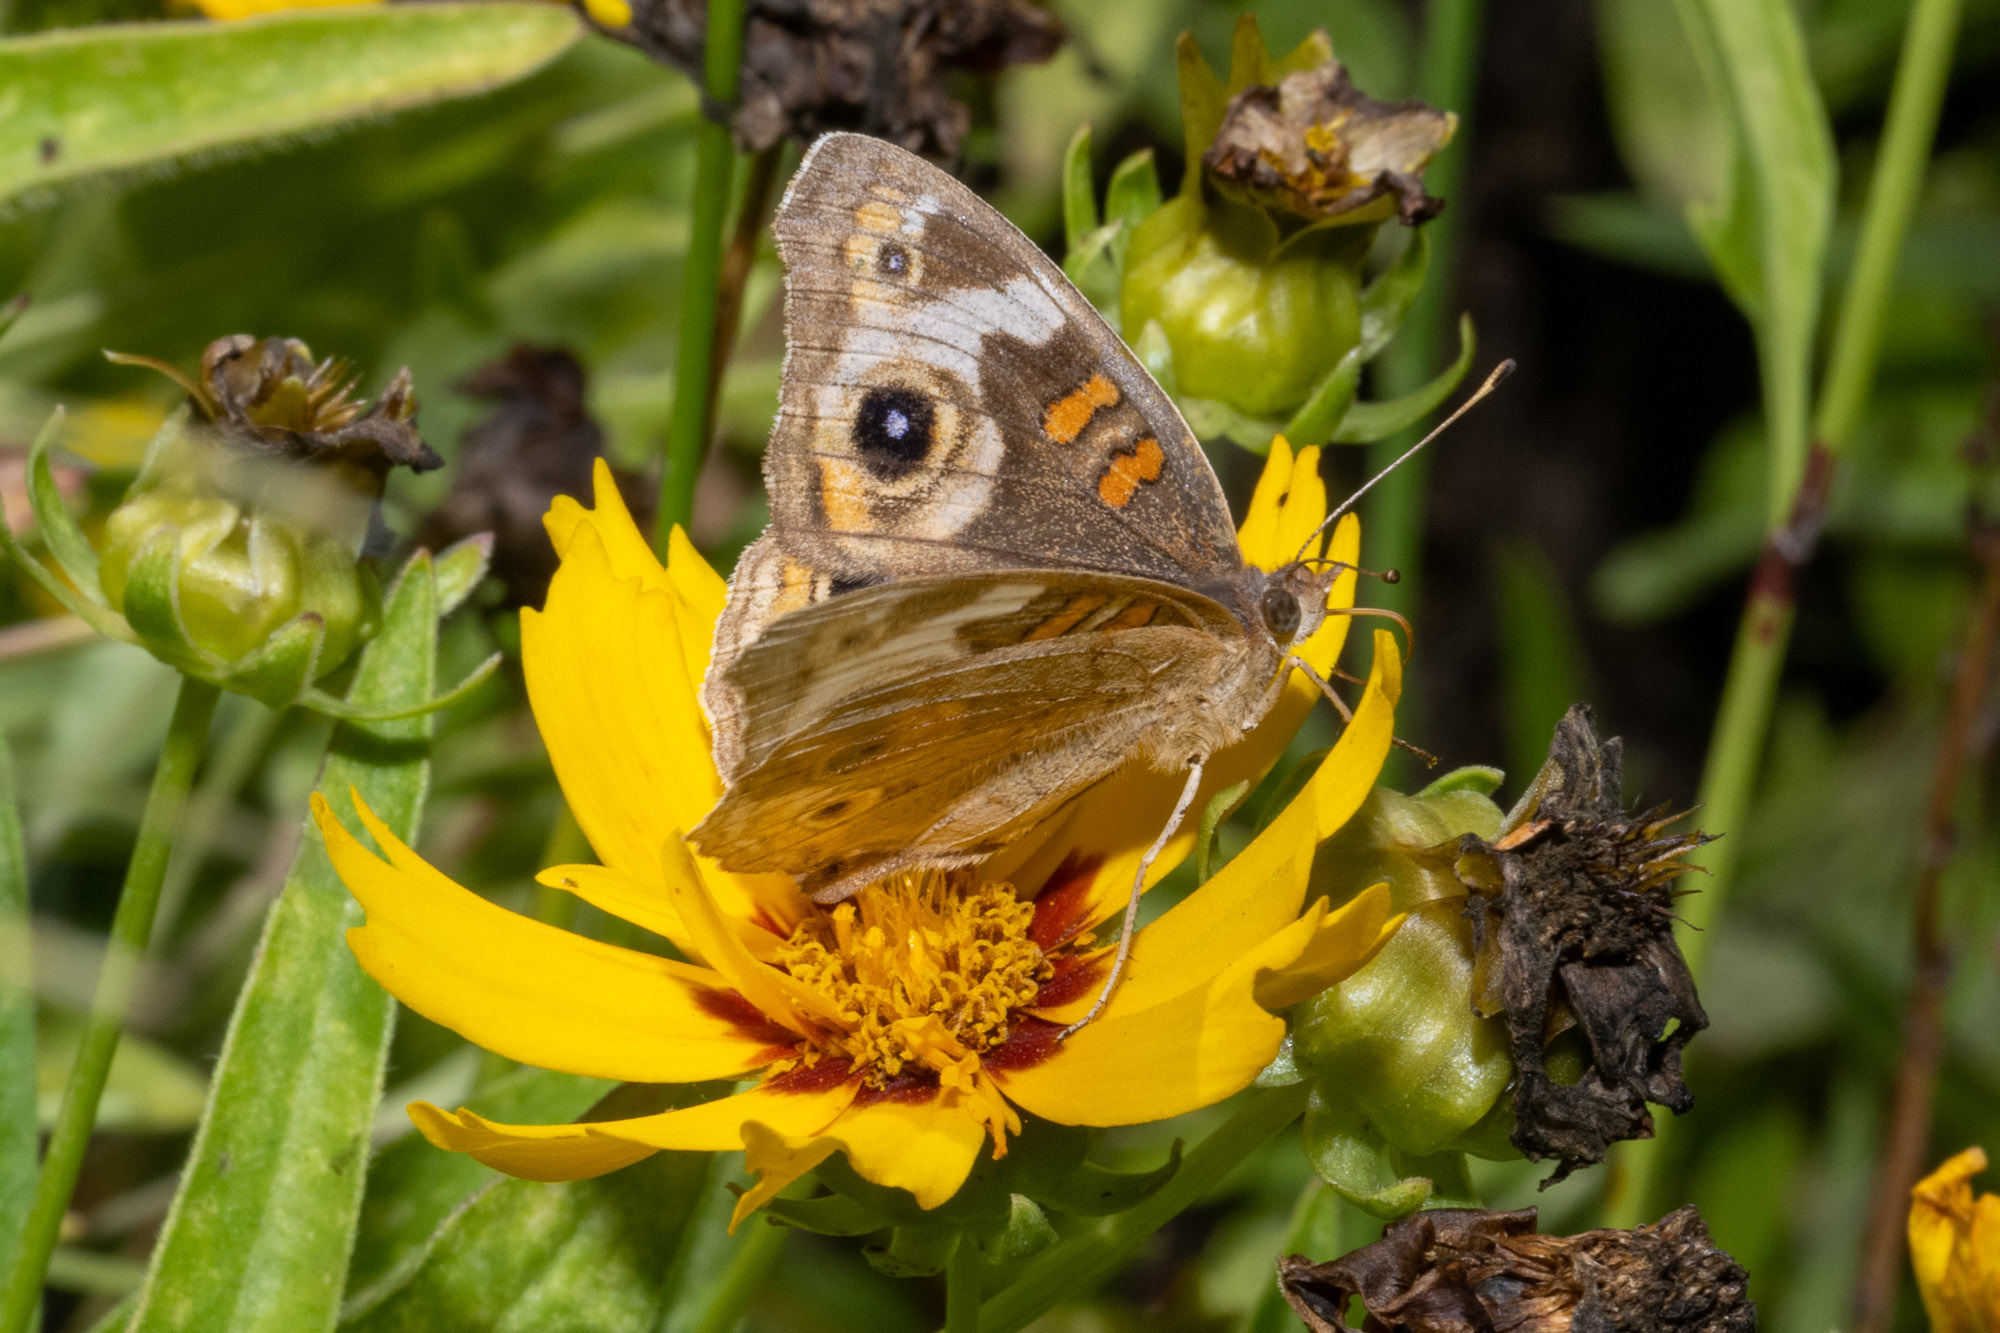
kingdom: Animalia
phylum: Arthropoda
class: Insecta
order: Lepidoptera
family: Nymphalidae
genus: Junonia
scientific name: Junonia grisea
